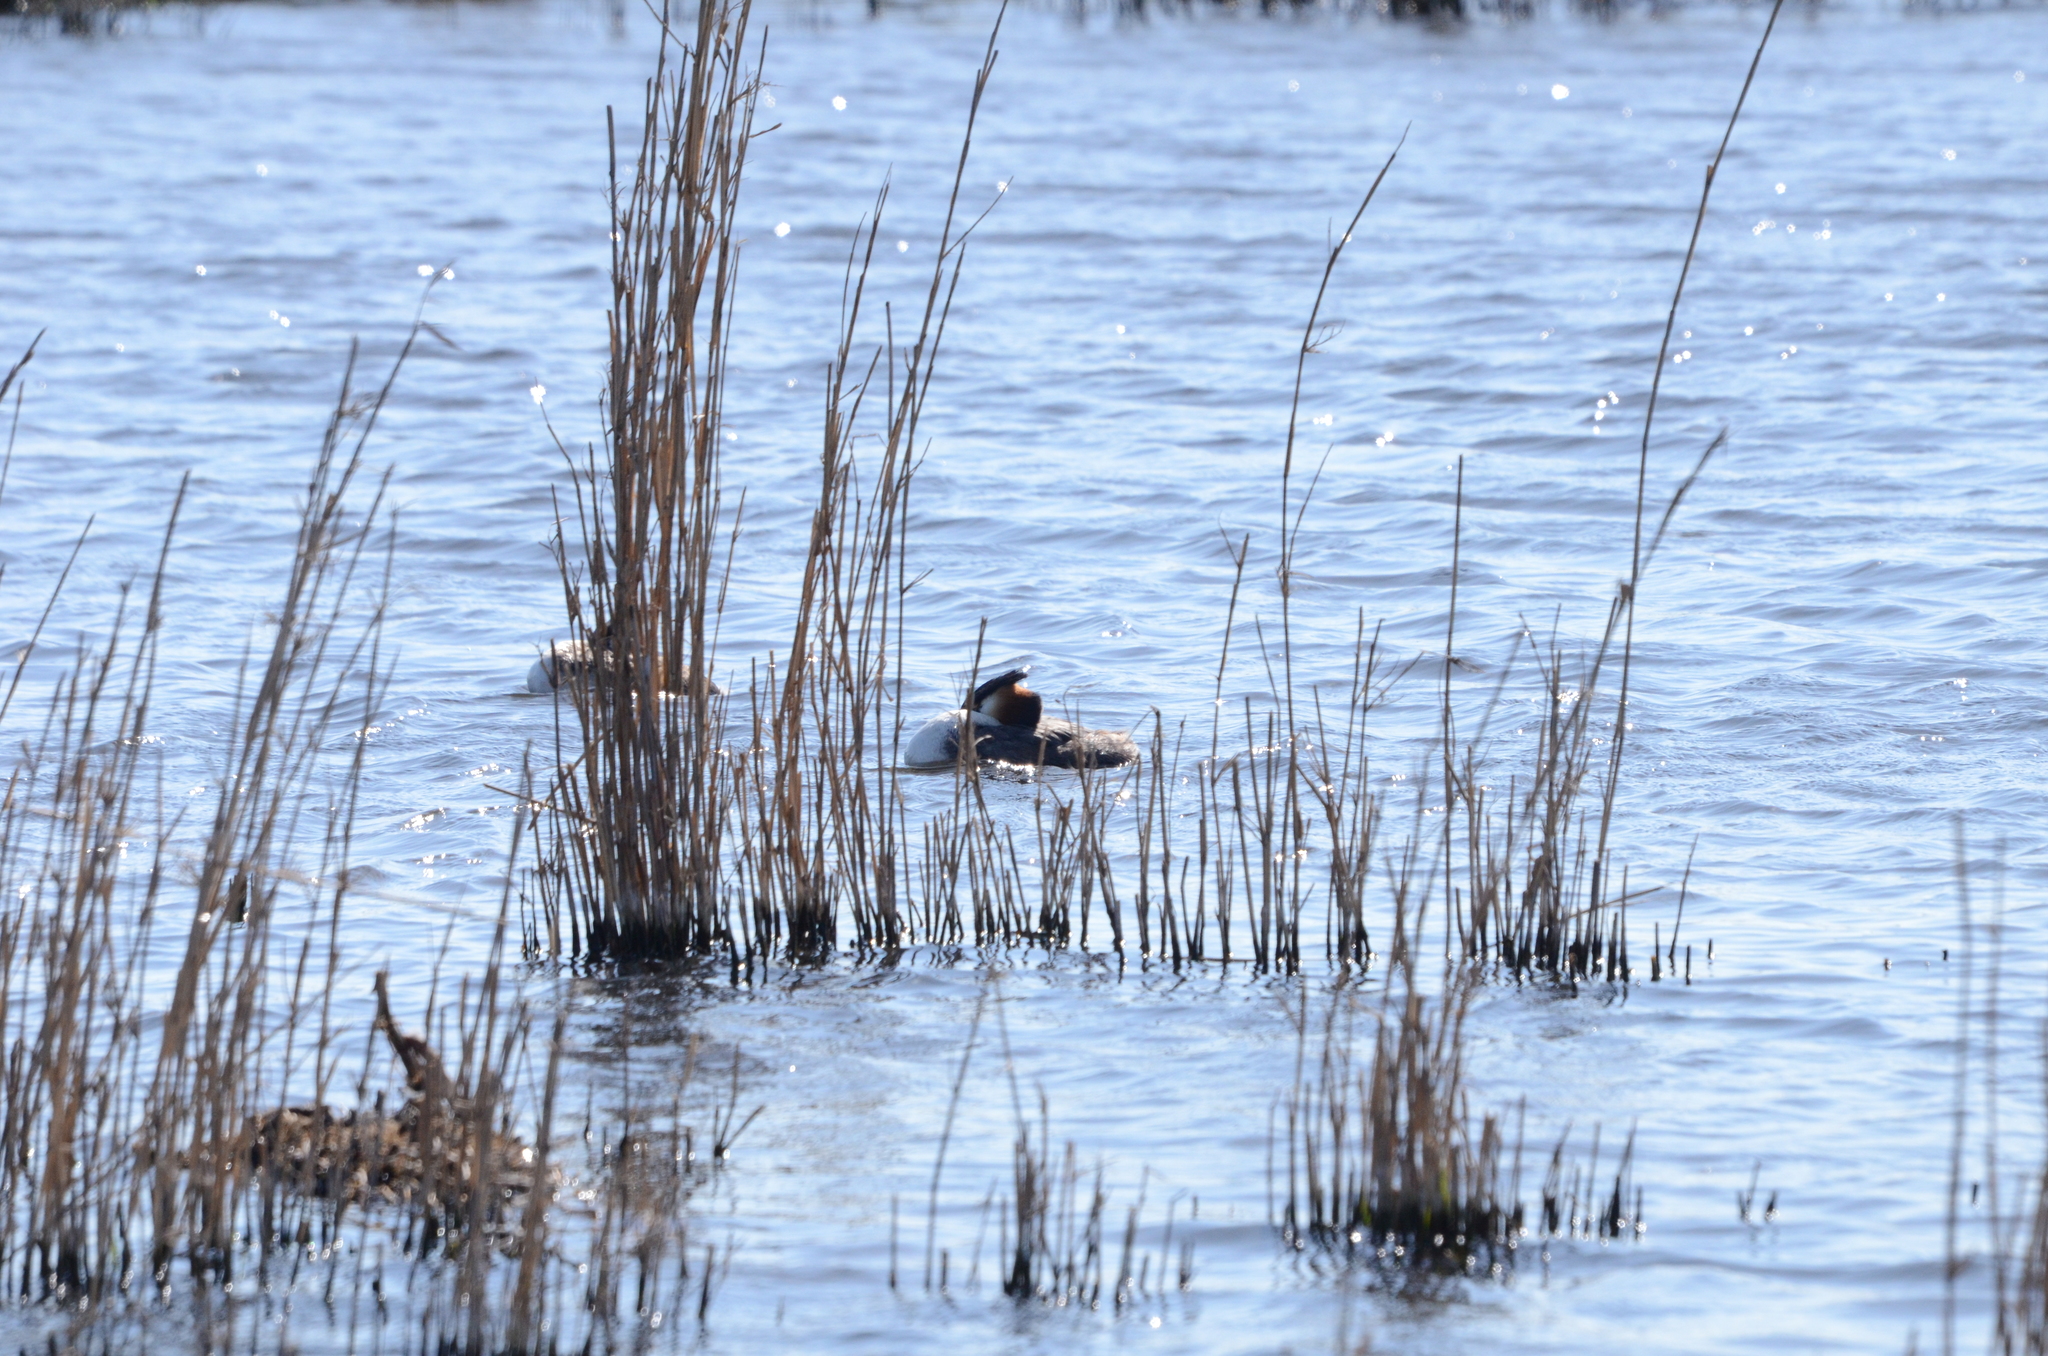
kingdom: Animalia
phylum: Chordata
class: Aves
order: Podicipediformes
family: Podicipedidae
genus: Podiceps
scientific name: Podiceps cristatus
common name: Great crested grebe
